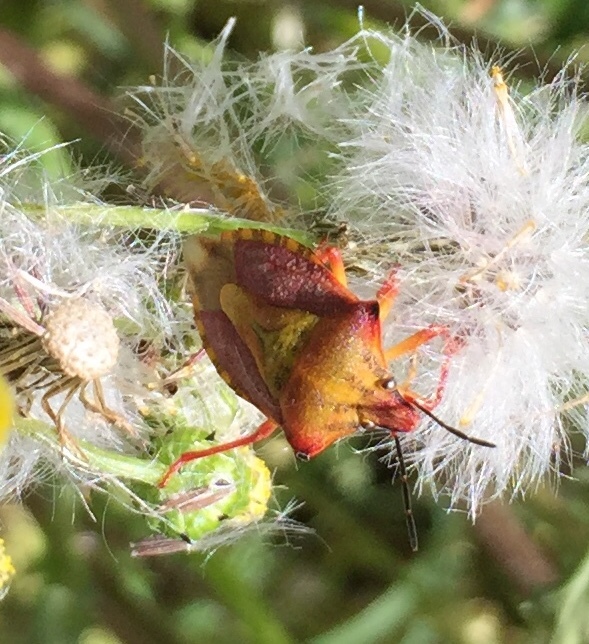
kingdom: Animalia
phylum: Arthropoda
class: Insecta
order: Hemiptera
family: Pentatomidae
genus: Carpocoris
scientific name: Carpocoris mediterraneus
